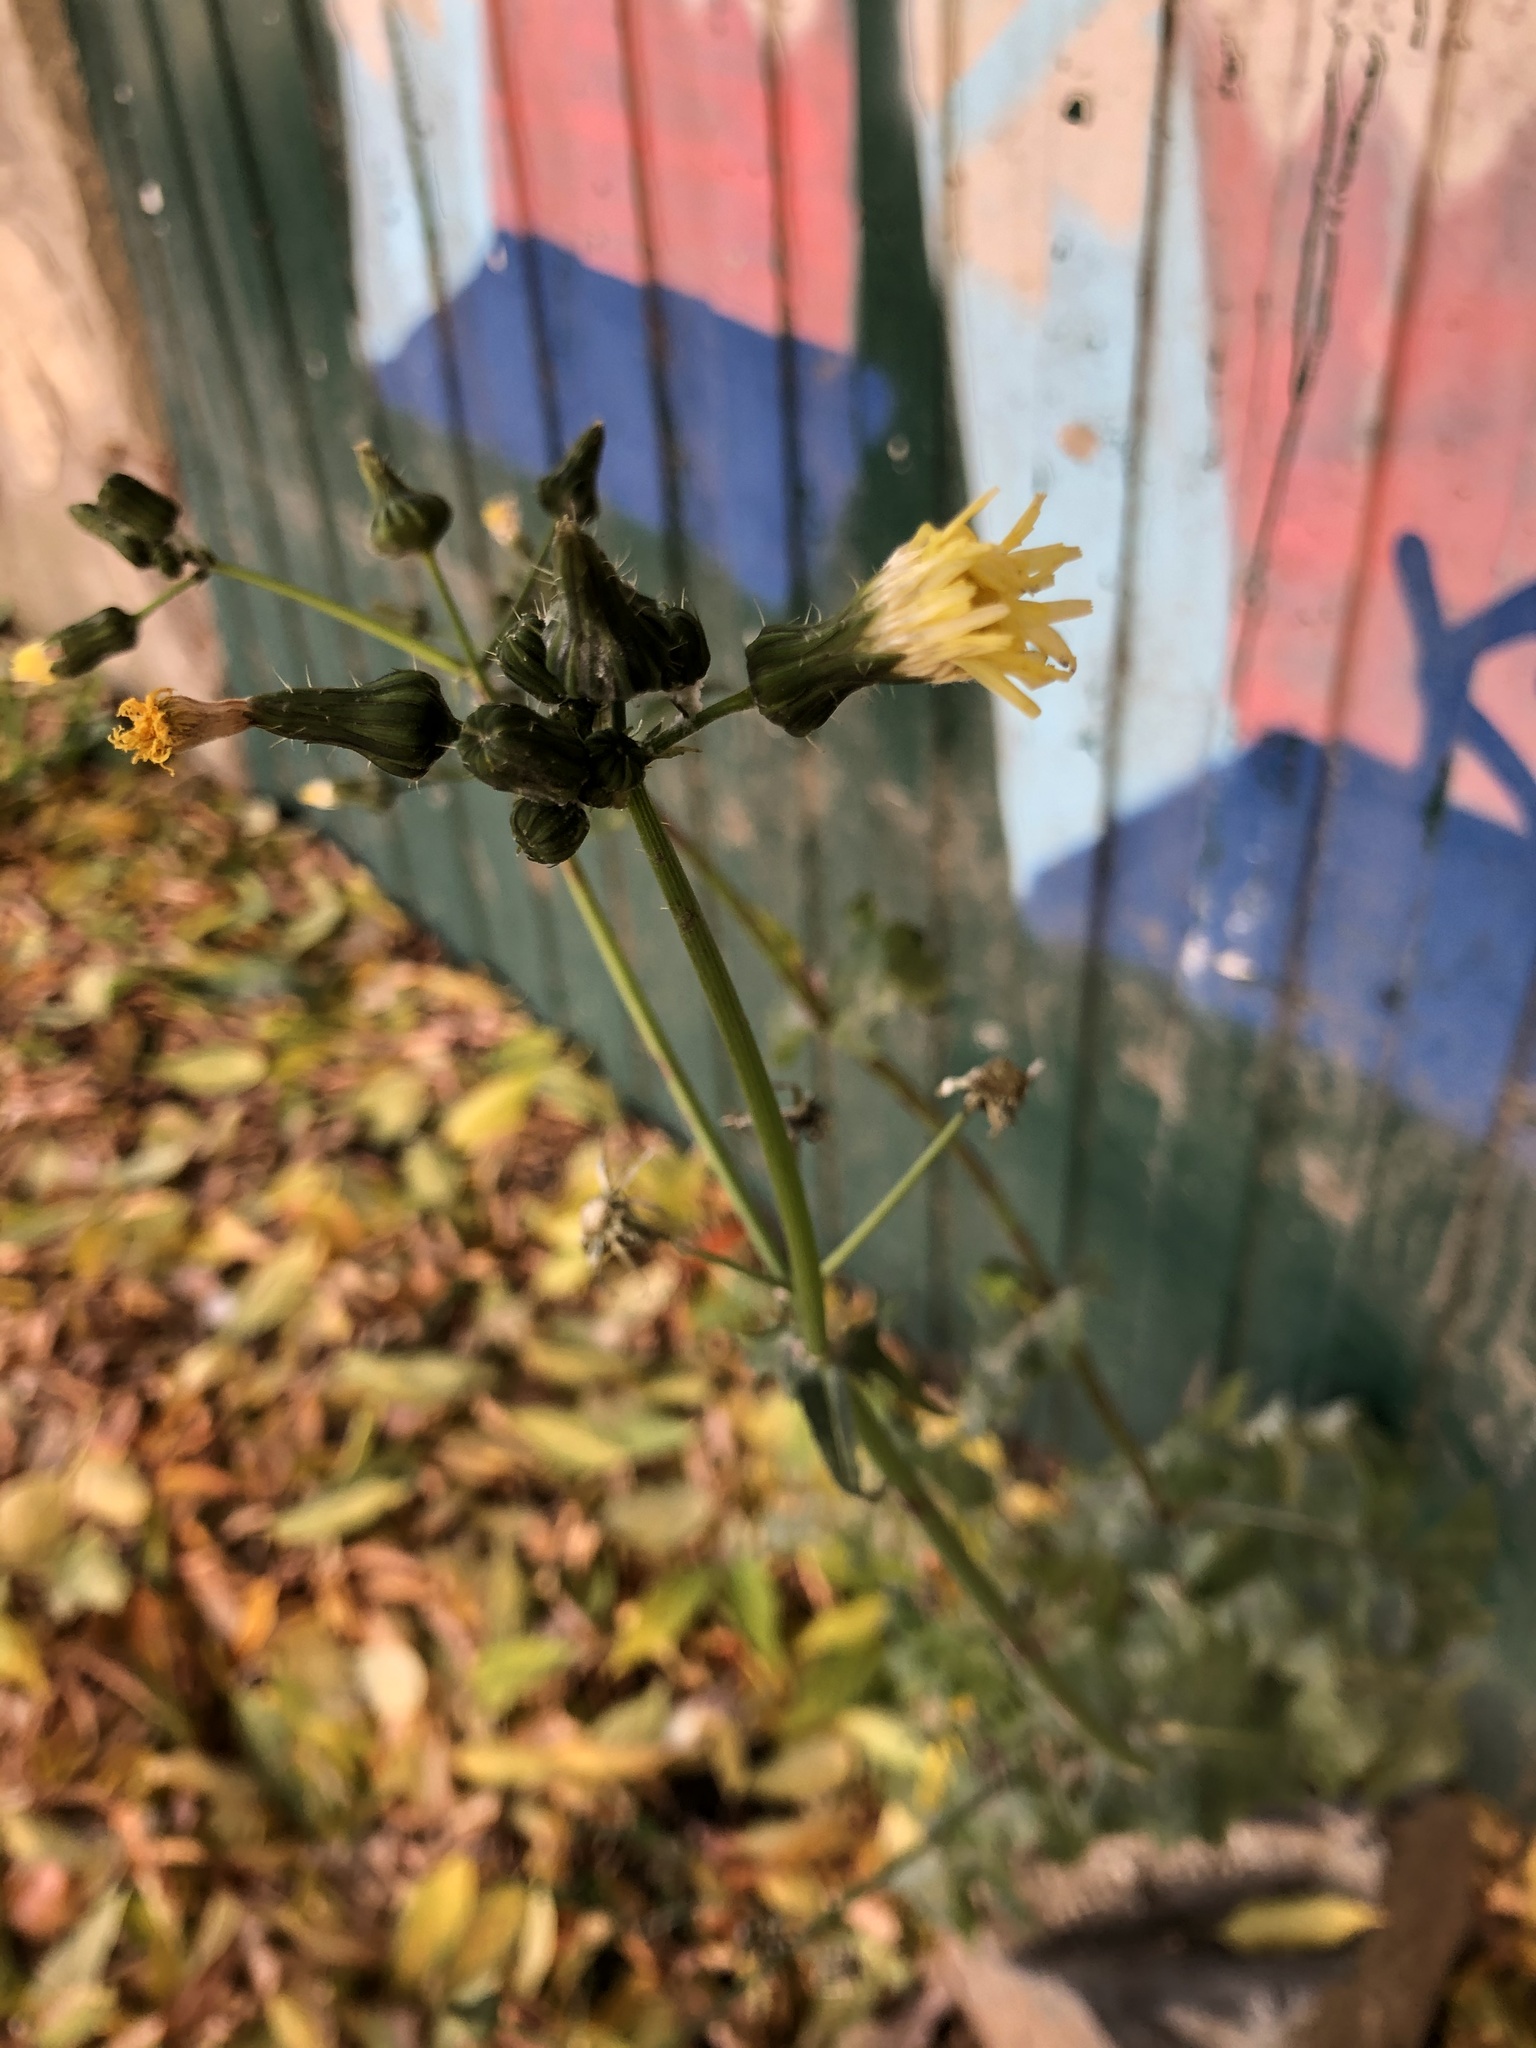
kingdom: Plantae
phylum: Tracheophyta
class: Magnoliopsida
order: Asterales
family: Asteraceae
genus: Sonchus
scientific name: Sonchus oleraceus
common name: Common sowthistle
